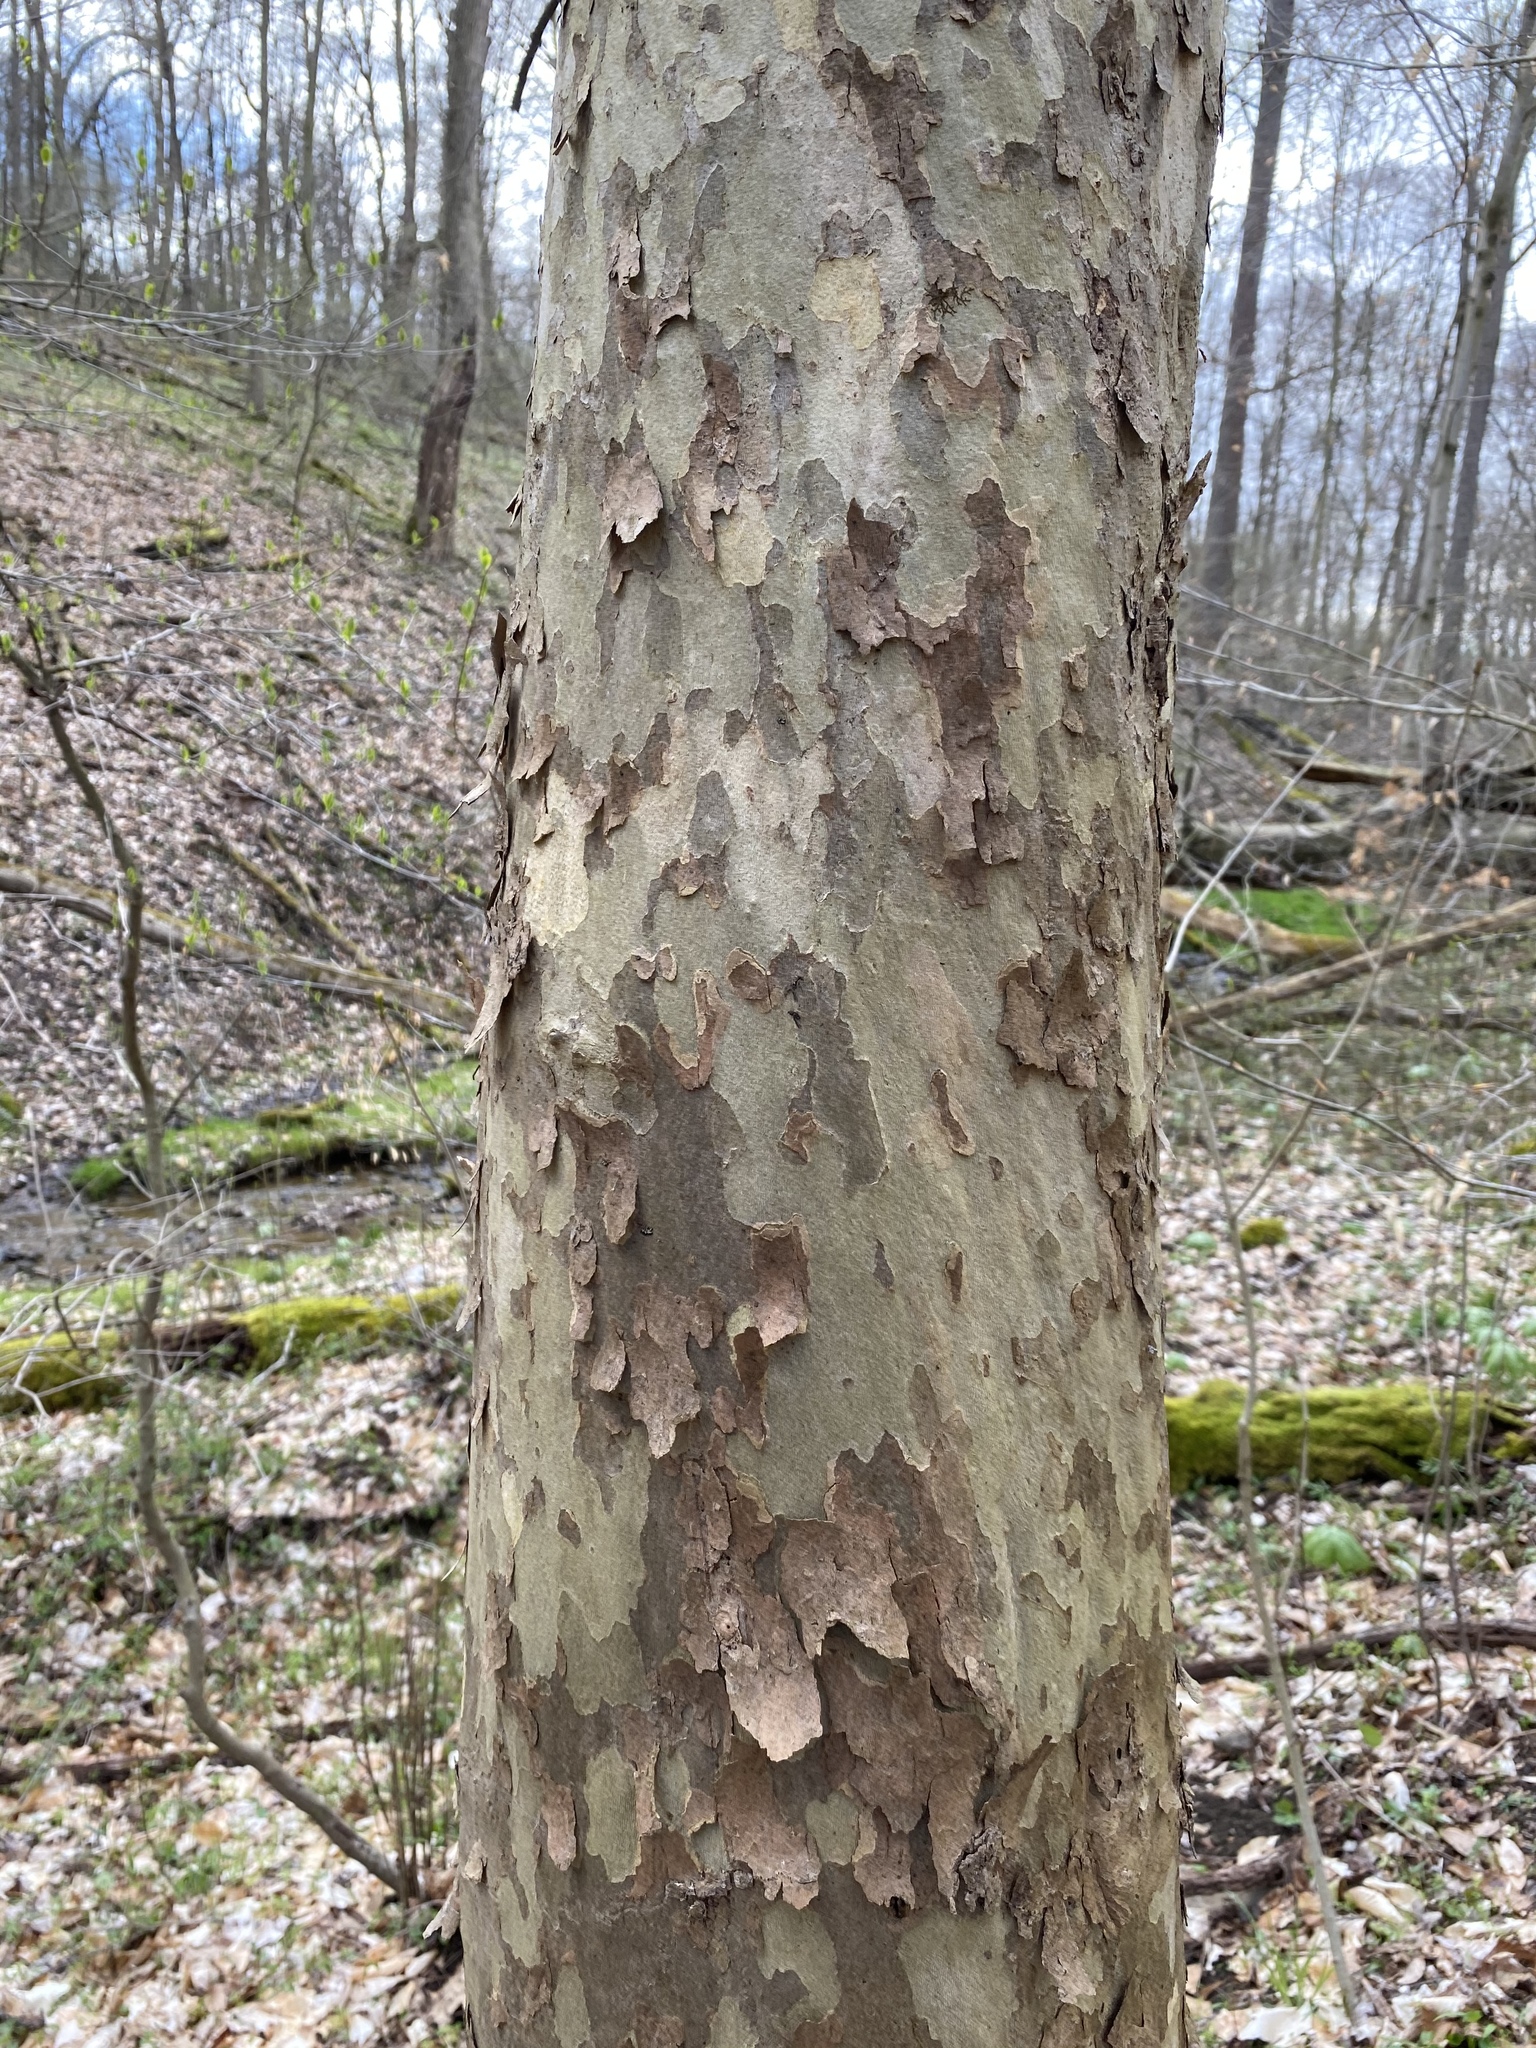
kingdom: Plantae
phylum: Tracheophyta
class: Magnoliopsida
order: Proteales
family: Platanaceae
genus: Platanus
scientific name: Platanus occidentalis
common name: American sycamore
